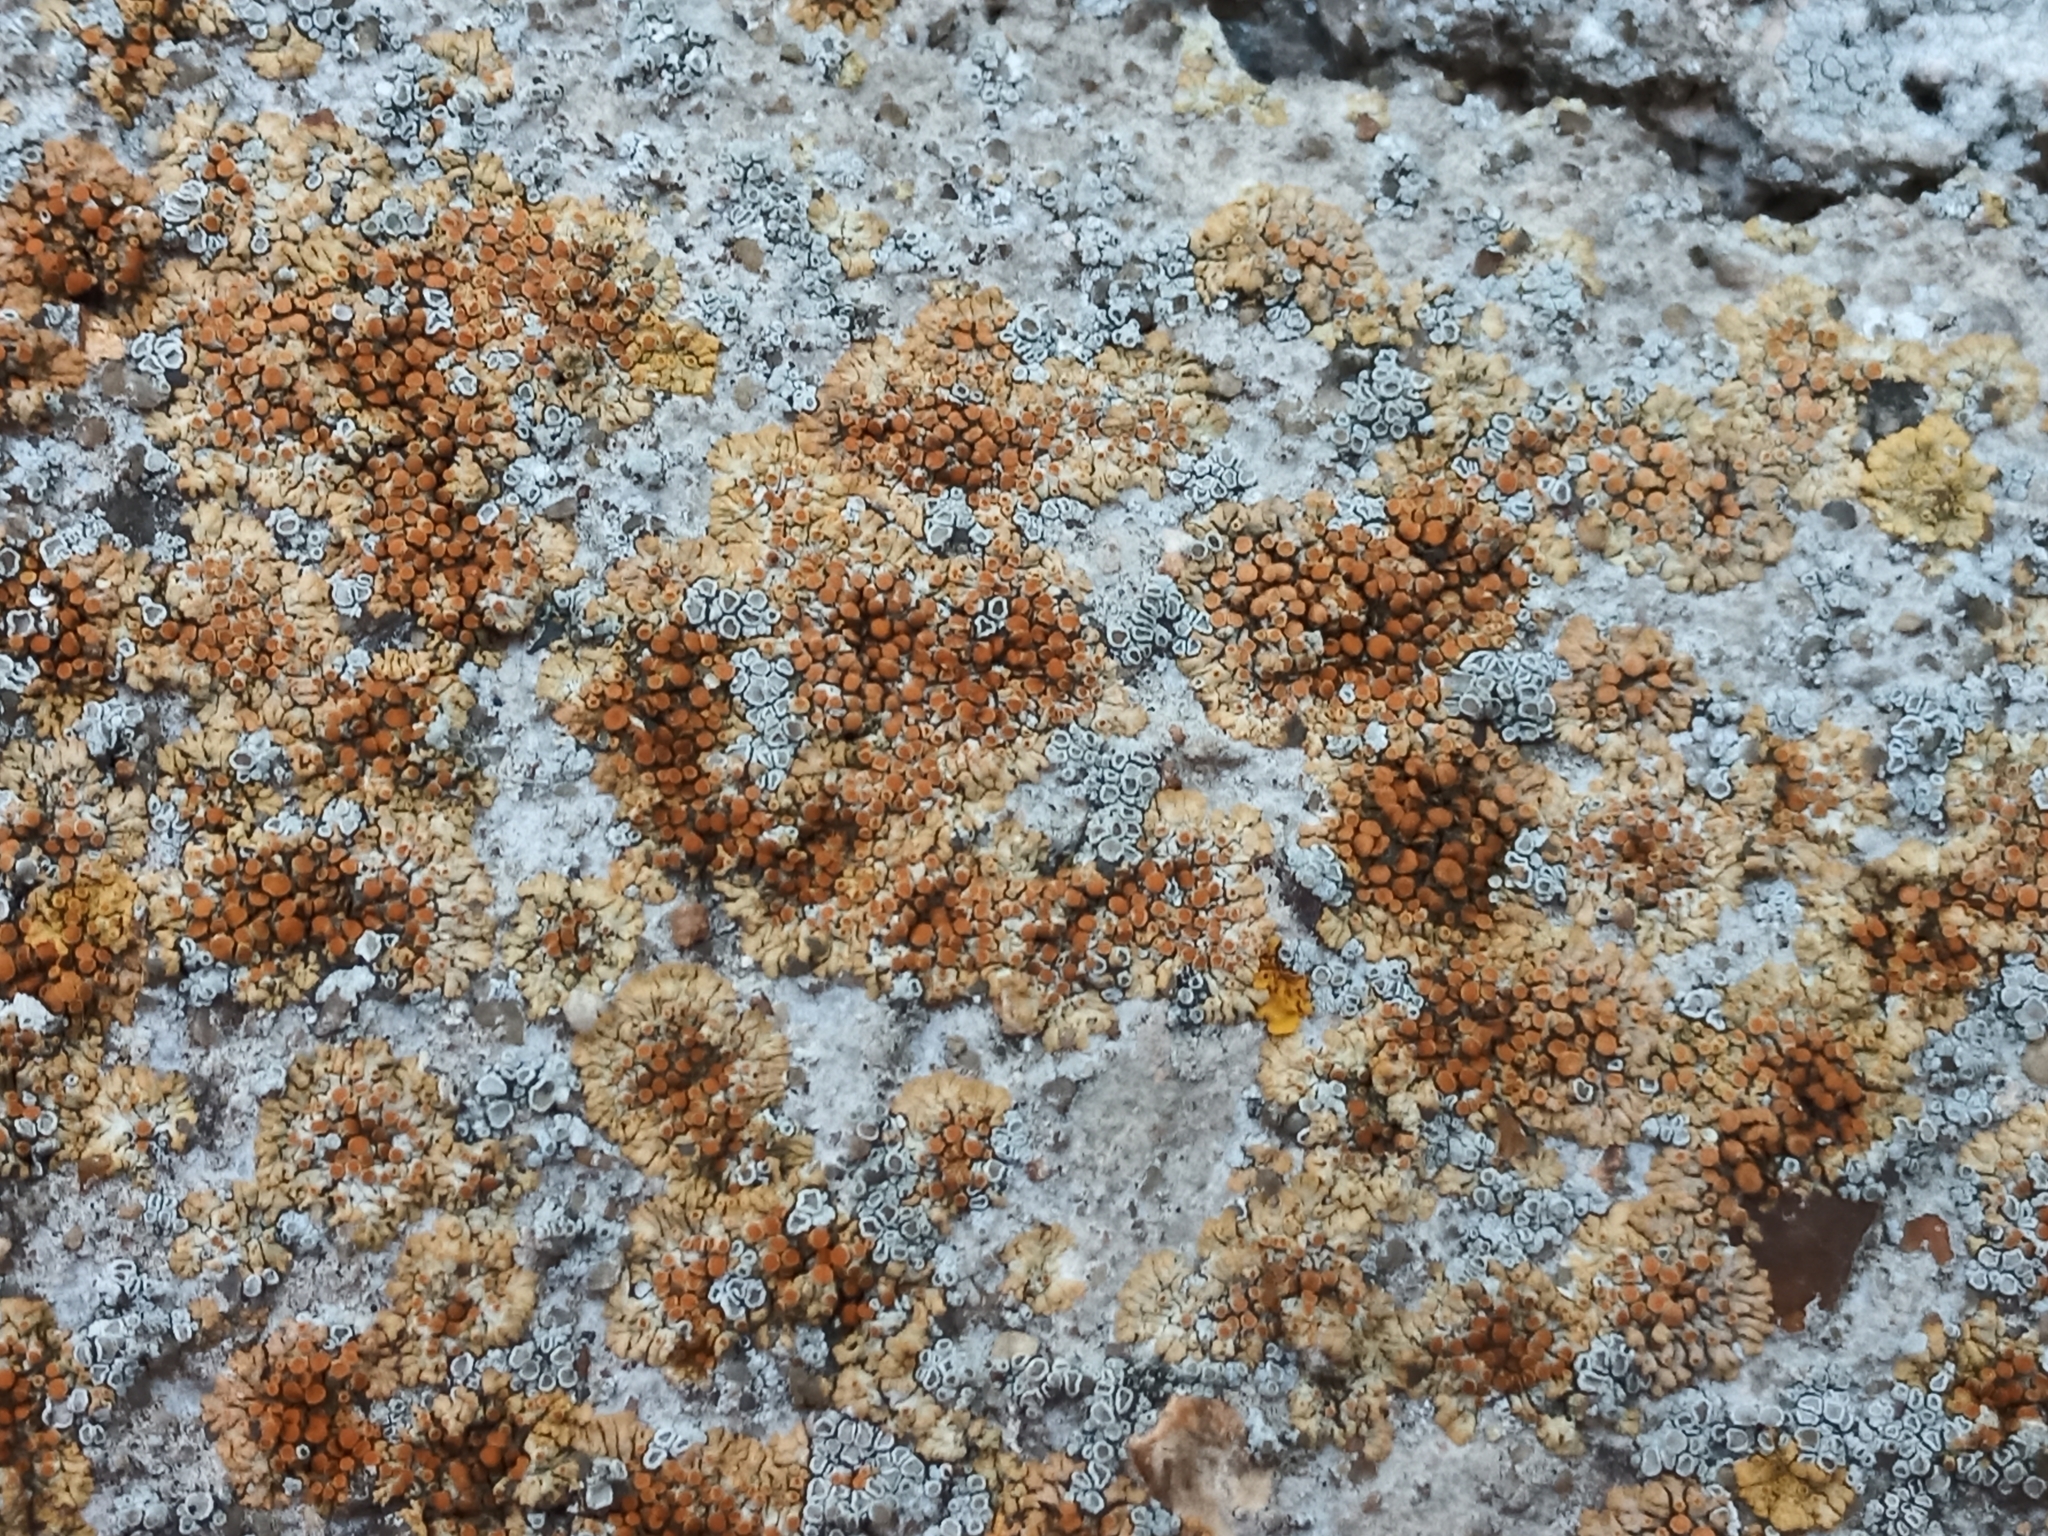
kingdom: Fungi
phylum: Ascomycota
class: Lecanoromycetes
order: Teloschistales
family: Teloschistaceae
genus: Calogaya
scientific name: Calogaya arnoldii
